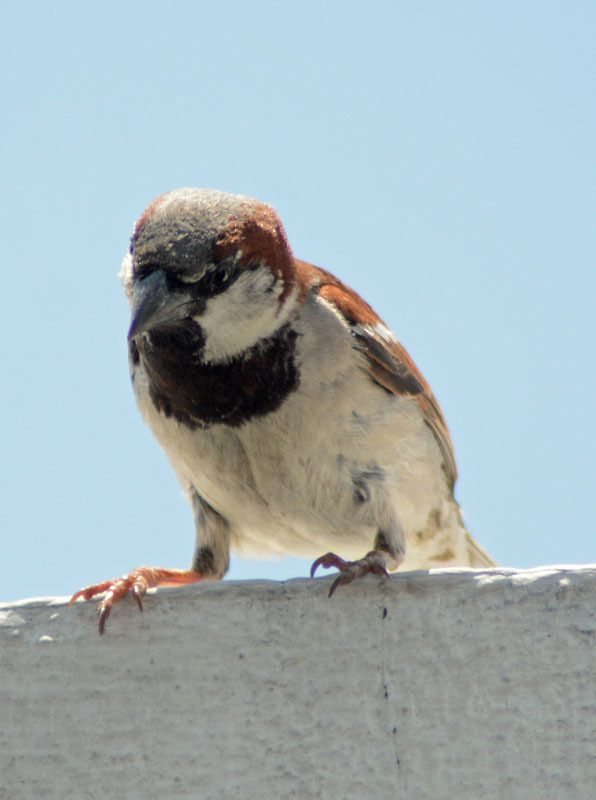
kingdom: Animalia
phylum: Chordata
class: Aves
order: Passeriformes
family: Passeridae
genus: Passer
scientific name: Passer domesticus
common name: House sparrow
